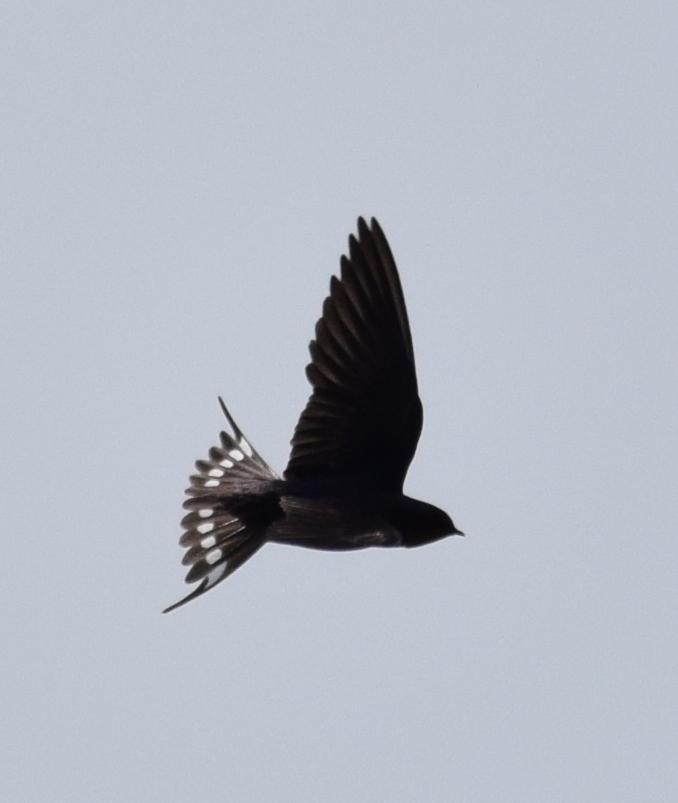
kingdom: Animalia
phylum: Chordata
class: Aves
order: Passeriformes
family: Hirundinidae
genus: Hirundo
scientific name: Hirundo rustica
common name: Barn swallow
